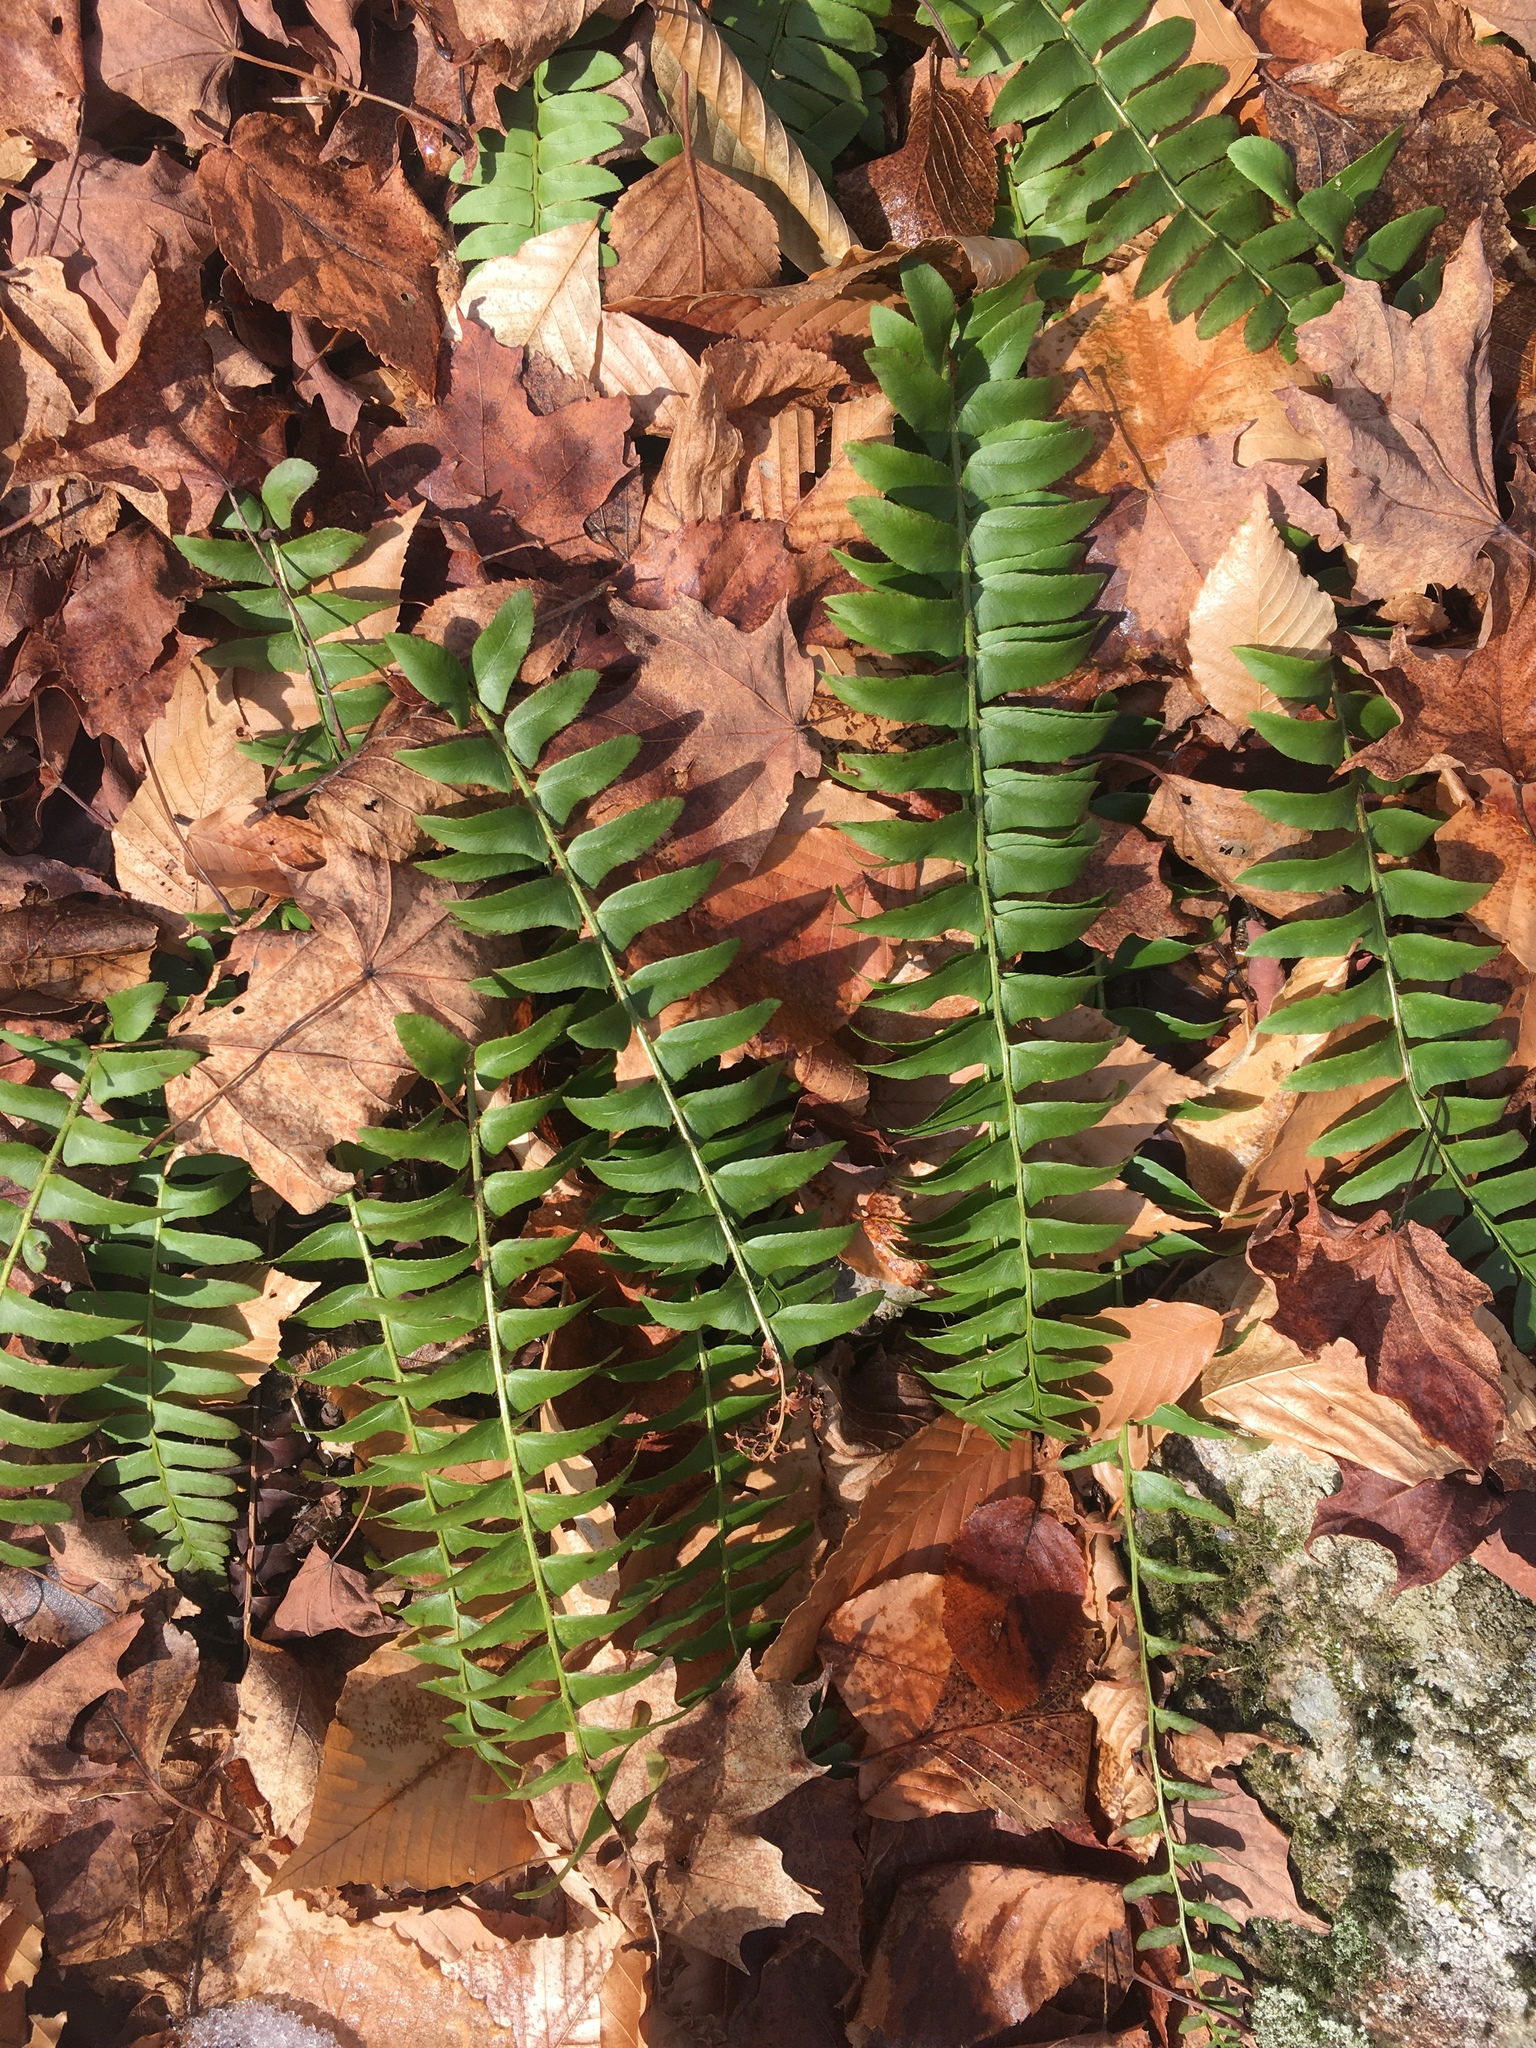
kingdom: Plantae
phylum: Tracheophyta
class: Polypodiopsida
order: Polypodiales
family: Dryopteridaceae
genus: Polystichum
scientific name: Polystichum acrostichoides
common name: Christmas fern
